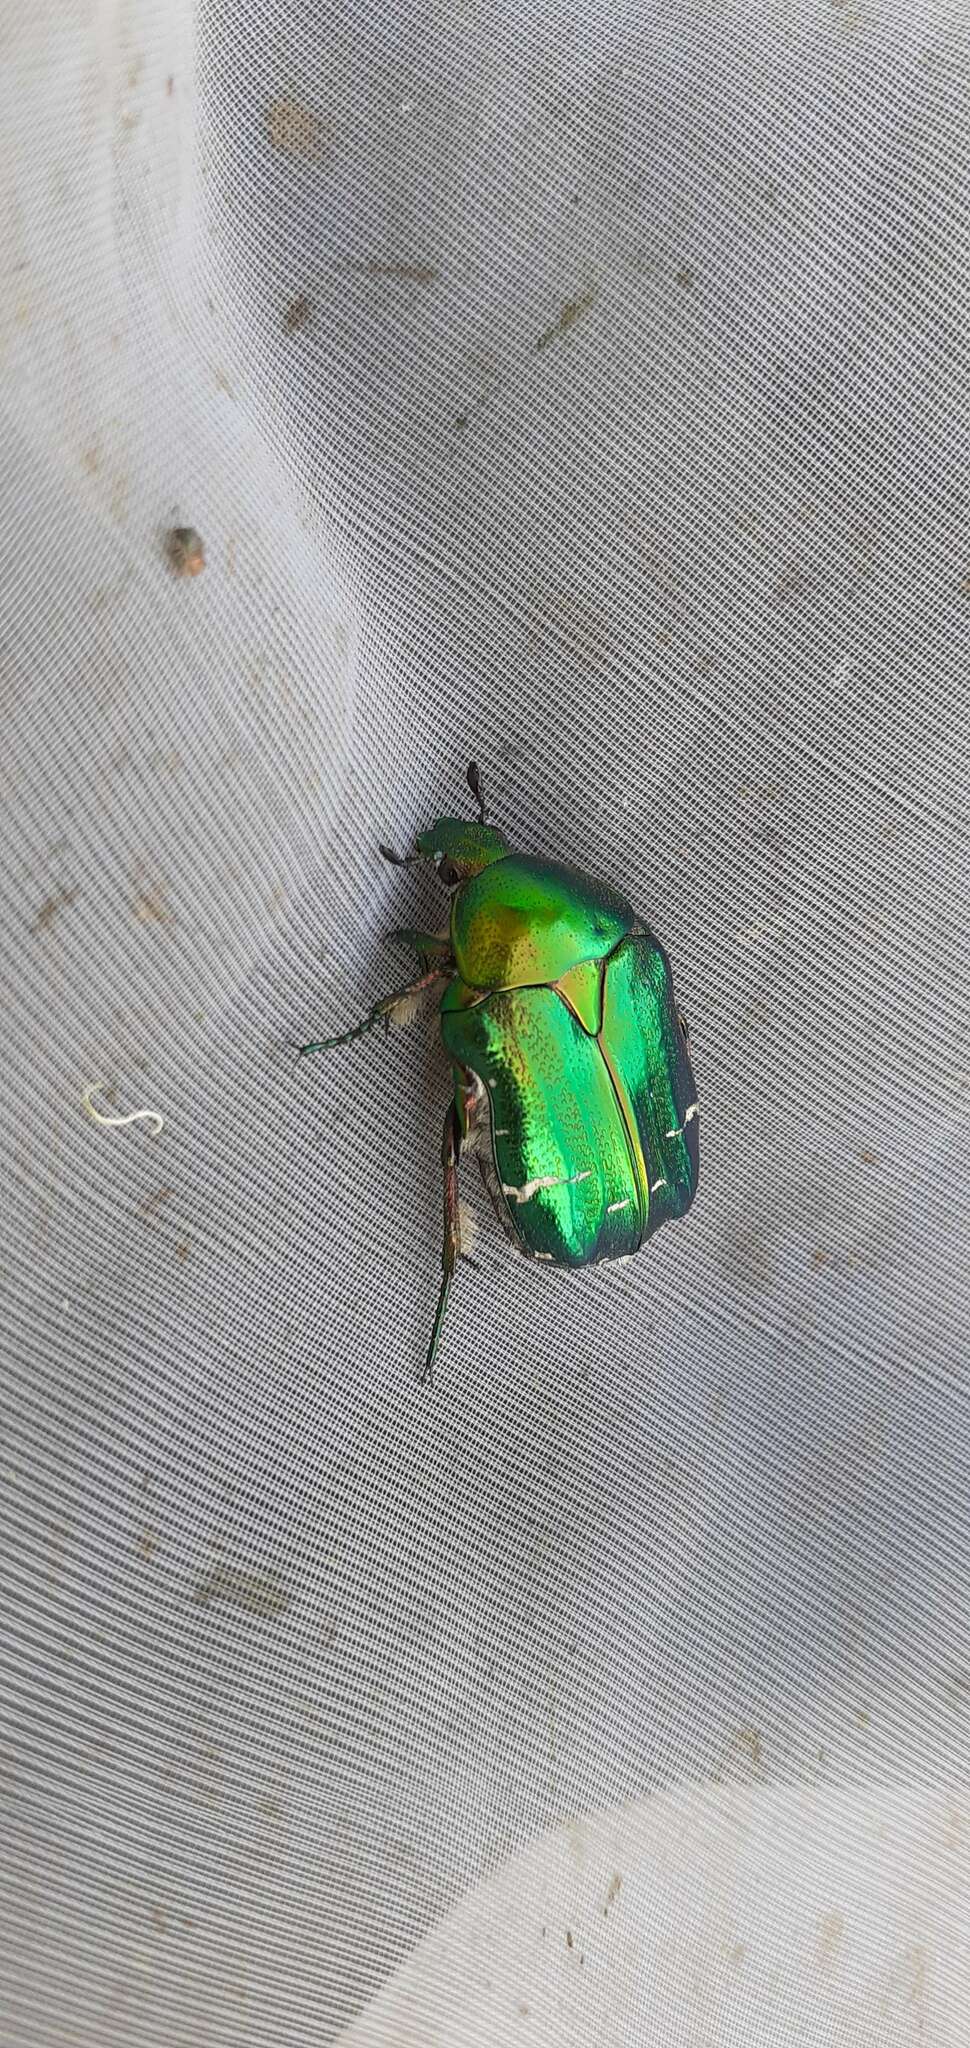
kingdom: Animalia
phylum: Arthropoda
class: Insecta
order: Coleoptera
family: Scarabaeidae
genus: Cetonia
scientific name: Cetonia aurata
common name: Rose chafer
